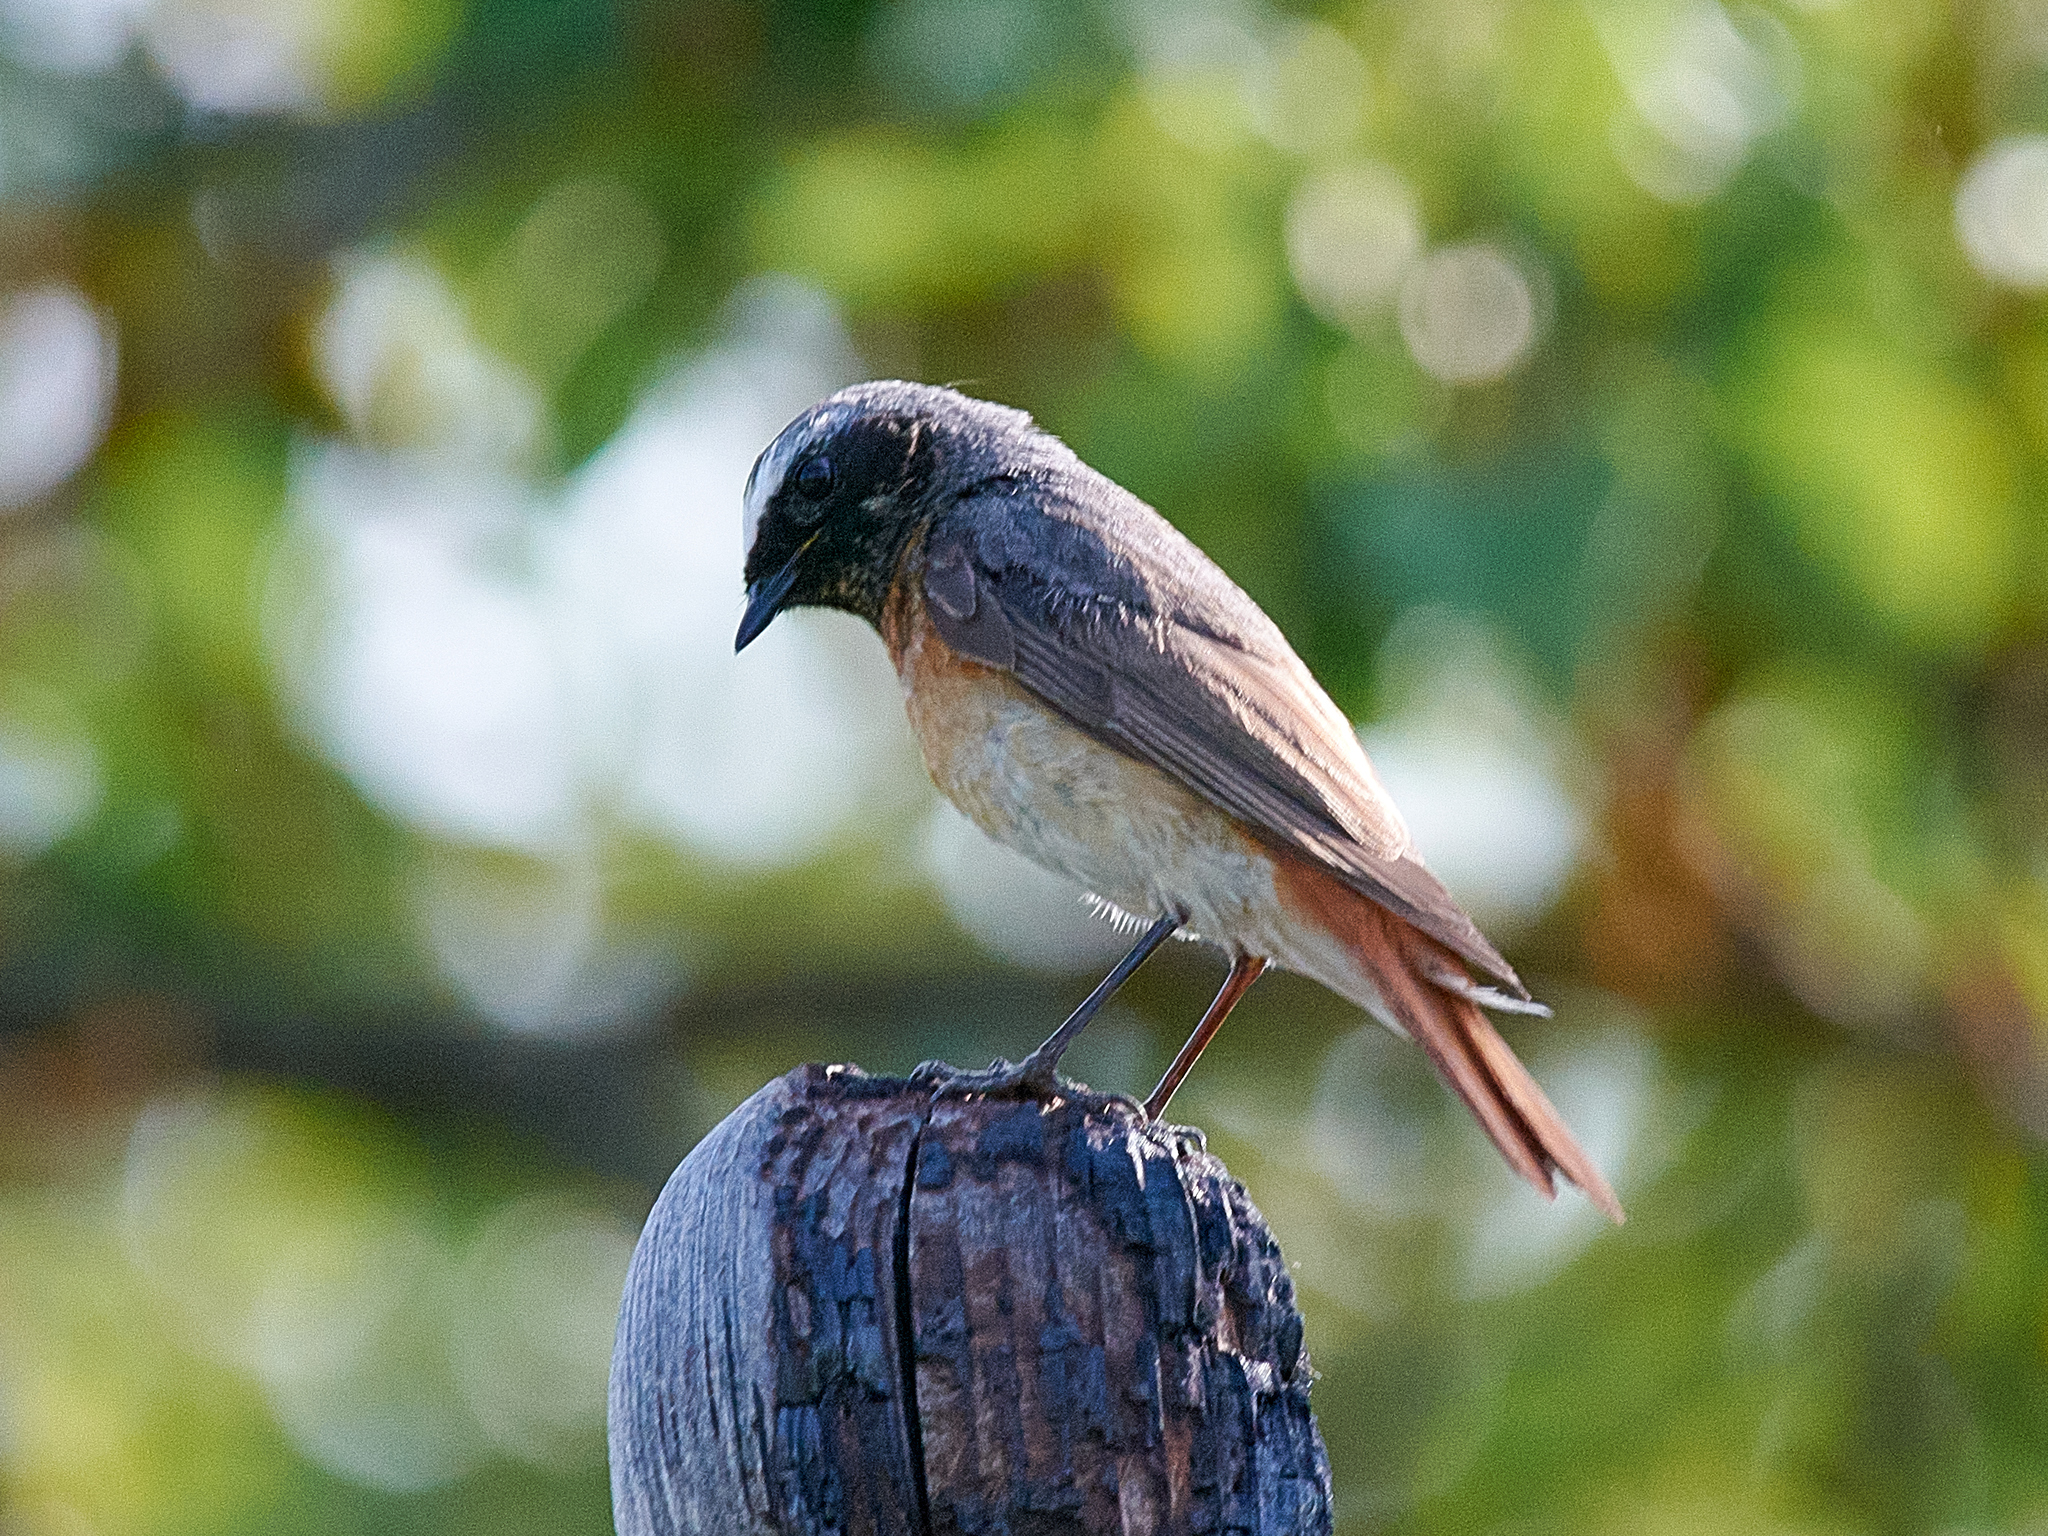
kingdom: Animalia
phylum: Chordata
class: Aves
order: Passeriformes
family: Muscicapidae
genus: Phoenicurus
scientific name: Phoenicurus phoenicurus
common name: Common redstart
